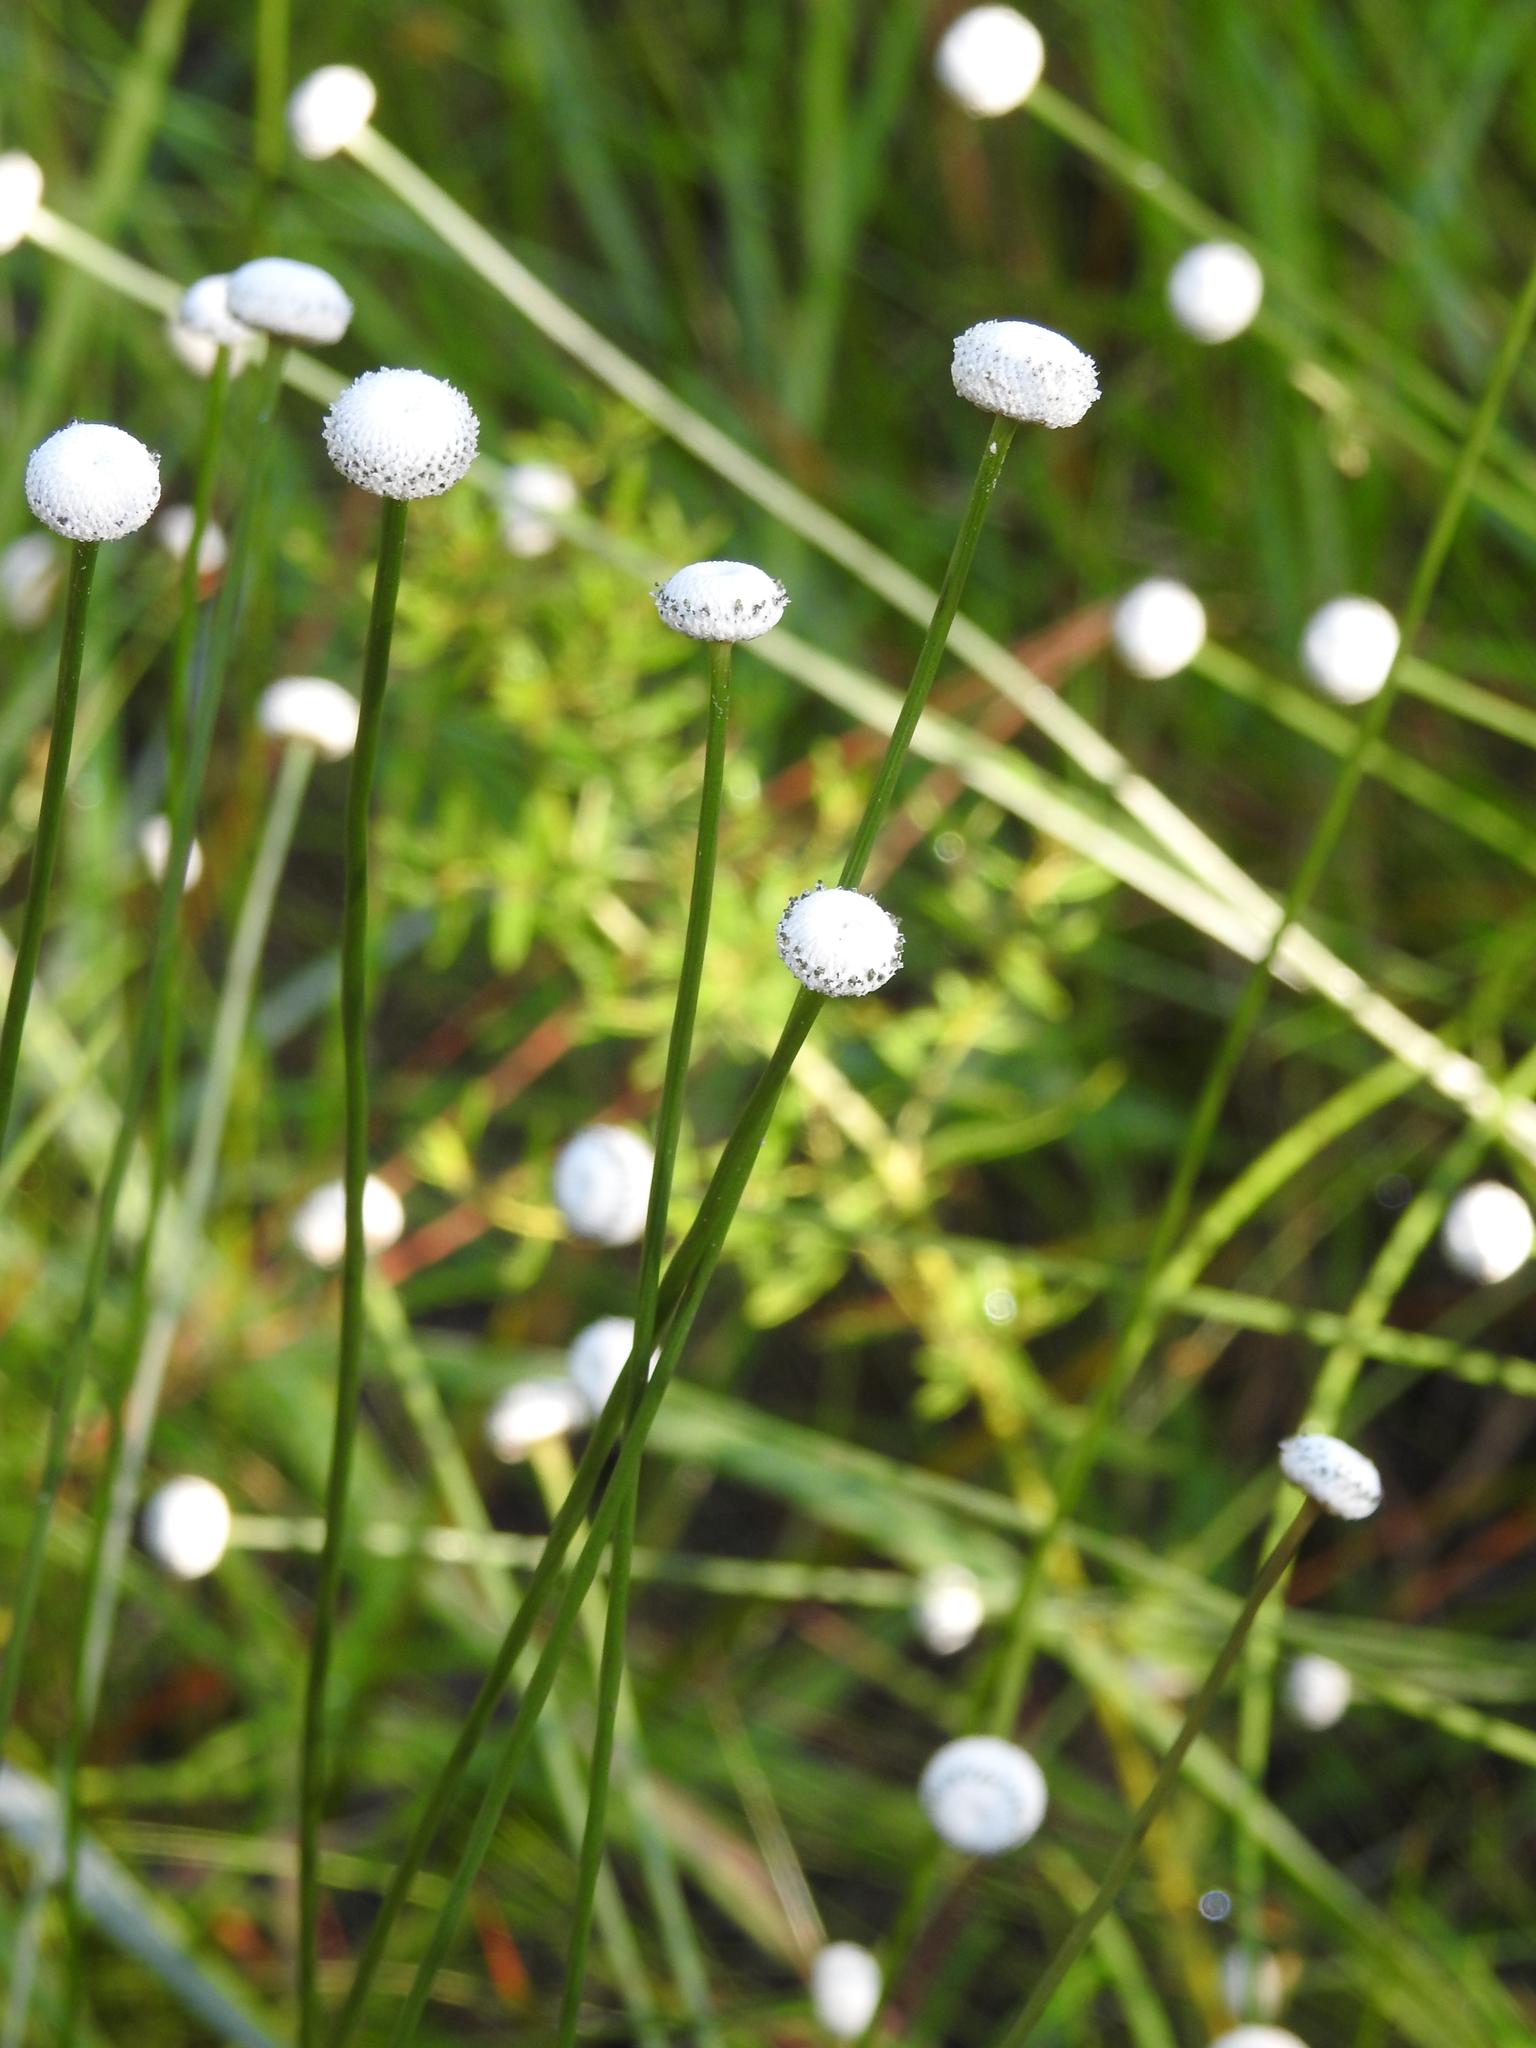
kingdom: Plantae
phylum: Tracheophyta
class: Liliopsida
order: Poales
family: Eriocaulaceae
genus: Eriocaulon
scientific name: Eriocaulon decangulare
